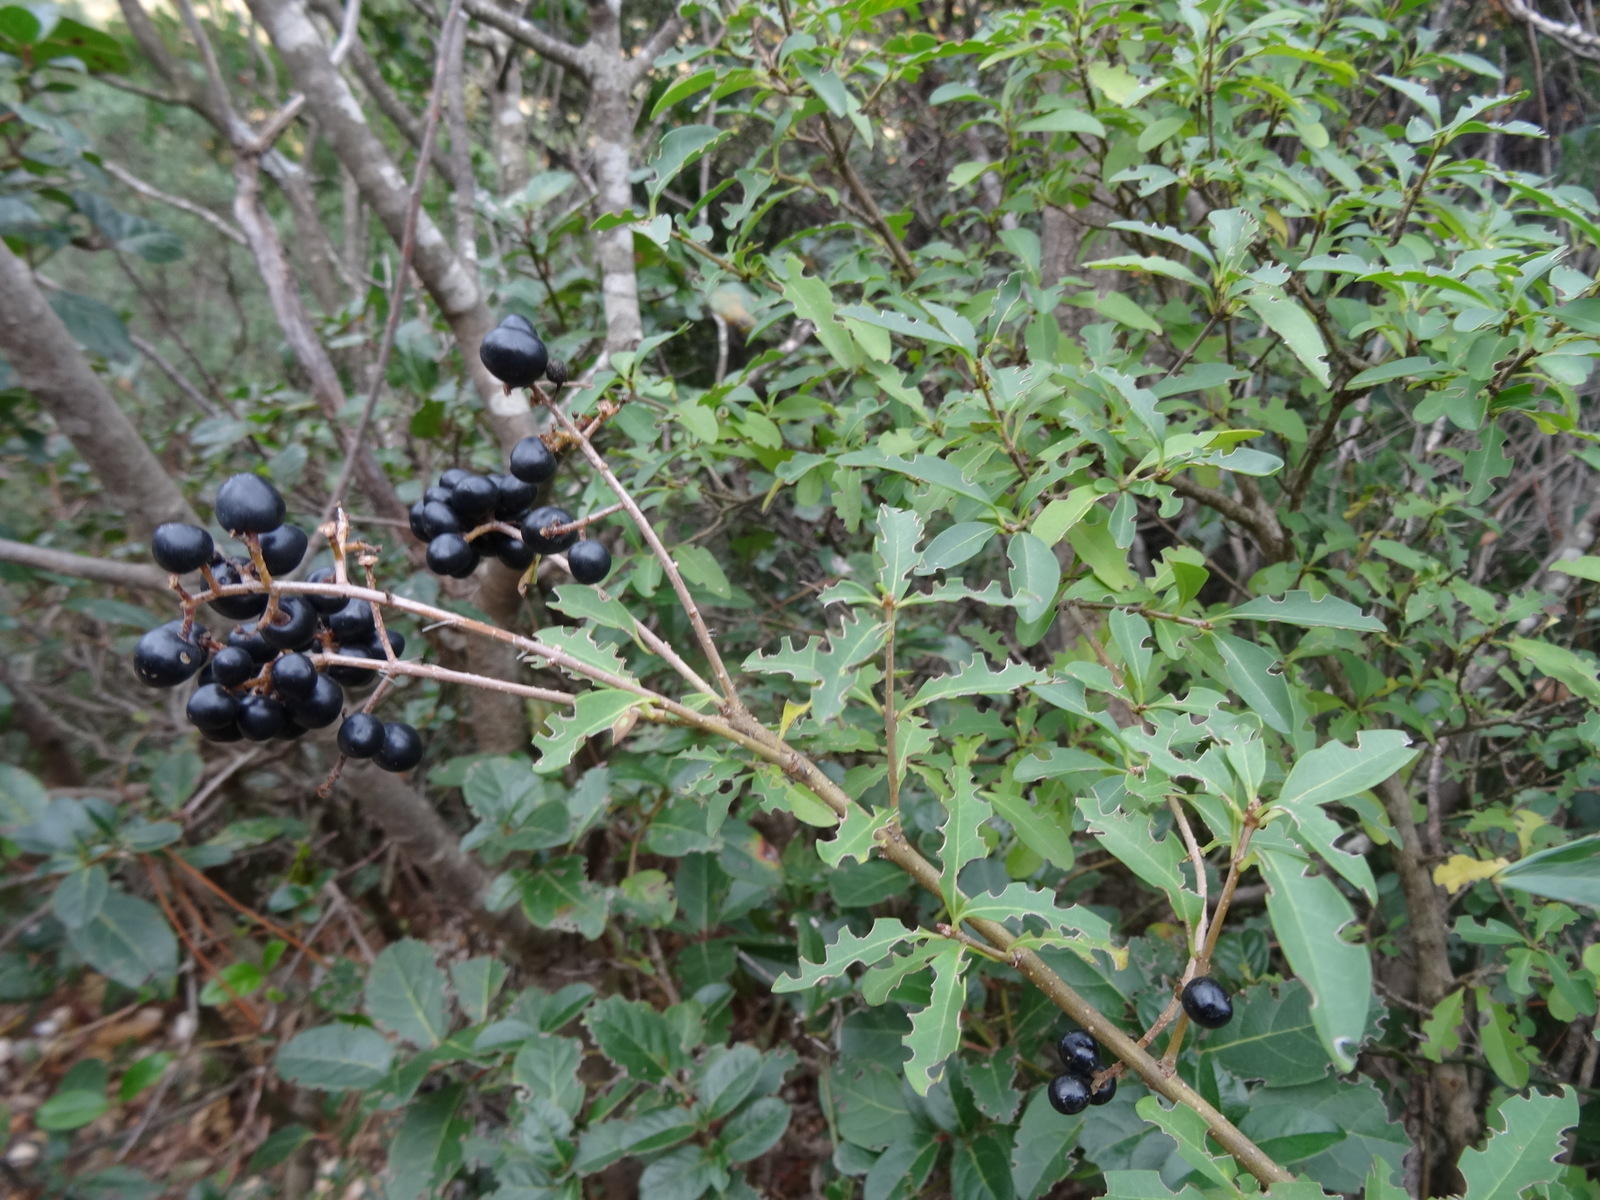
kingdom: Plantae
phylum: Tracheophyta
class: Magnoliopsida
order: Lamiales
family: Oleaceae
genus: Ligustrum
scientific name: Ligustrum vulgare
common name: Wild privet
